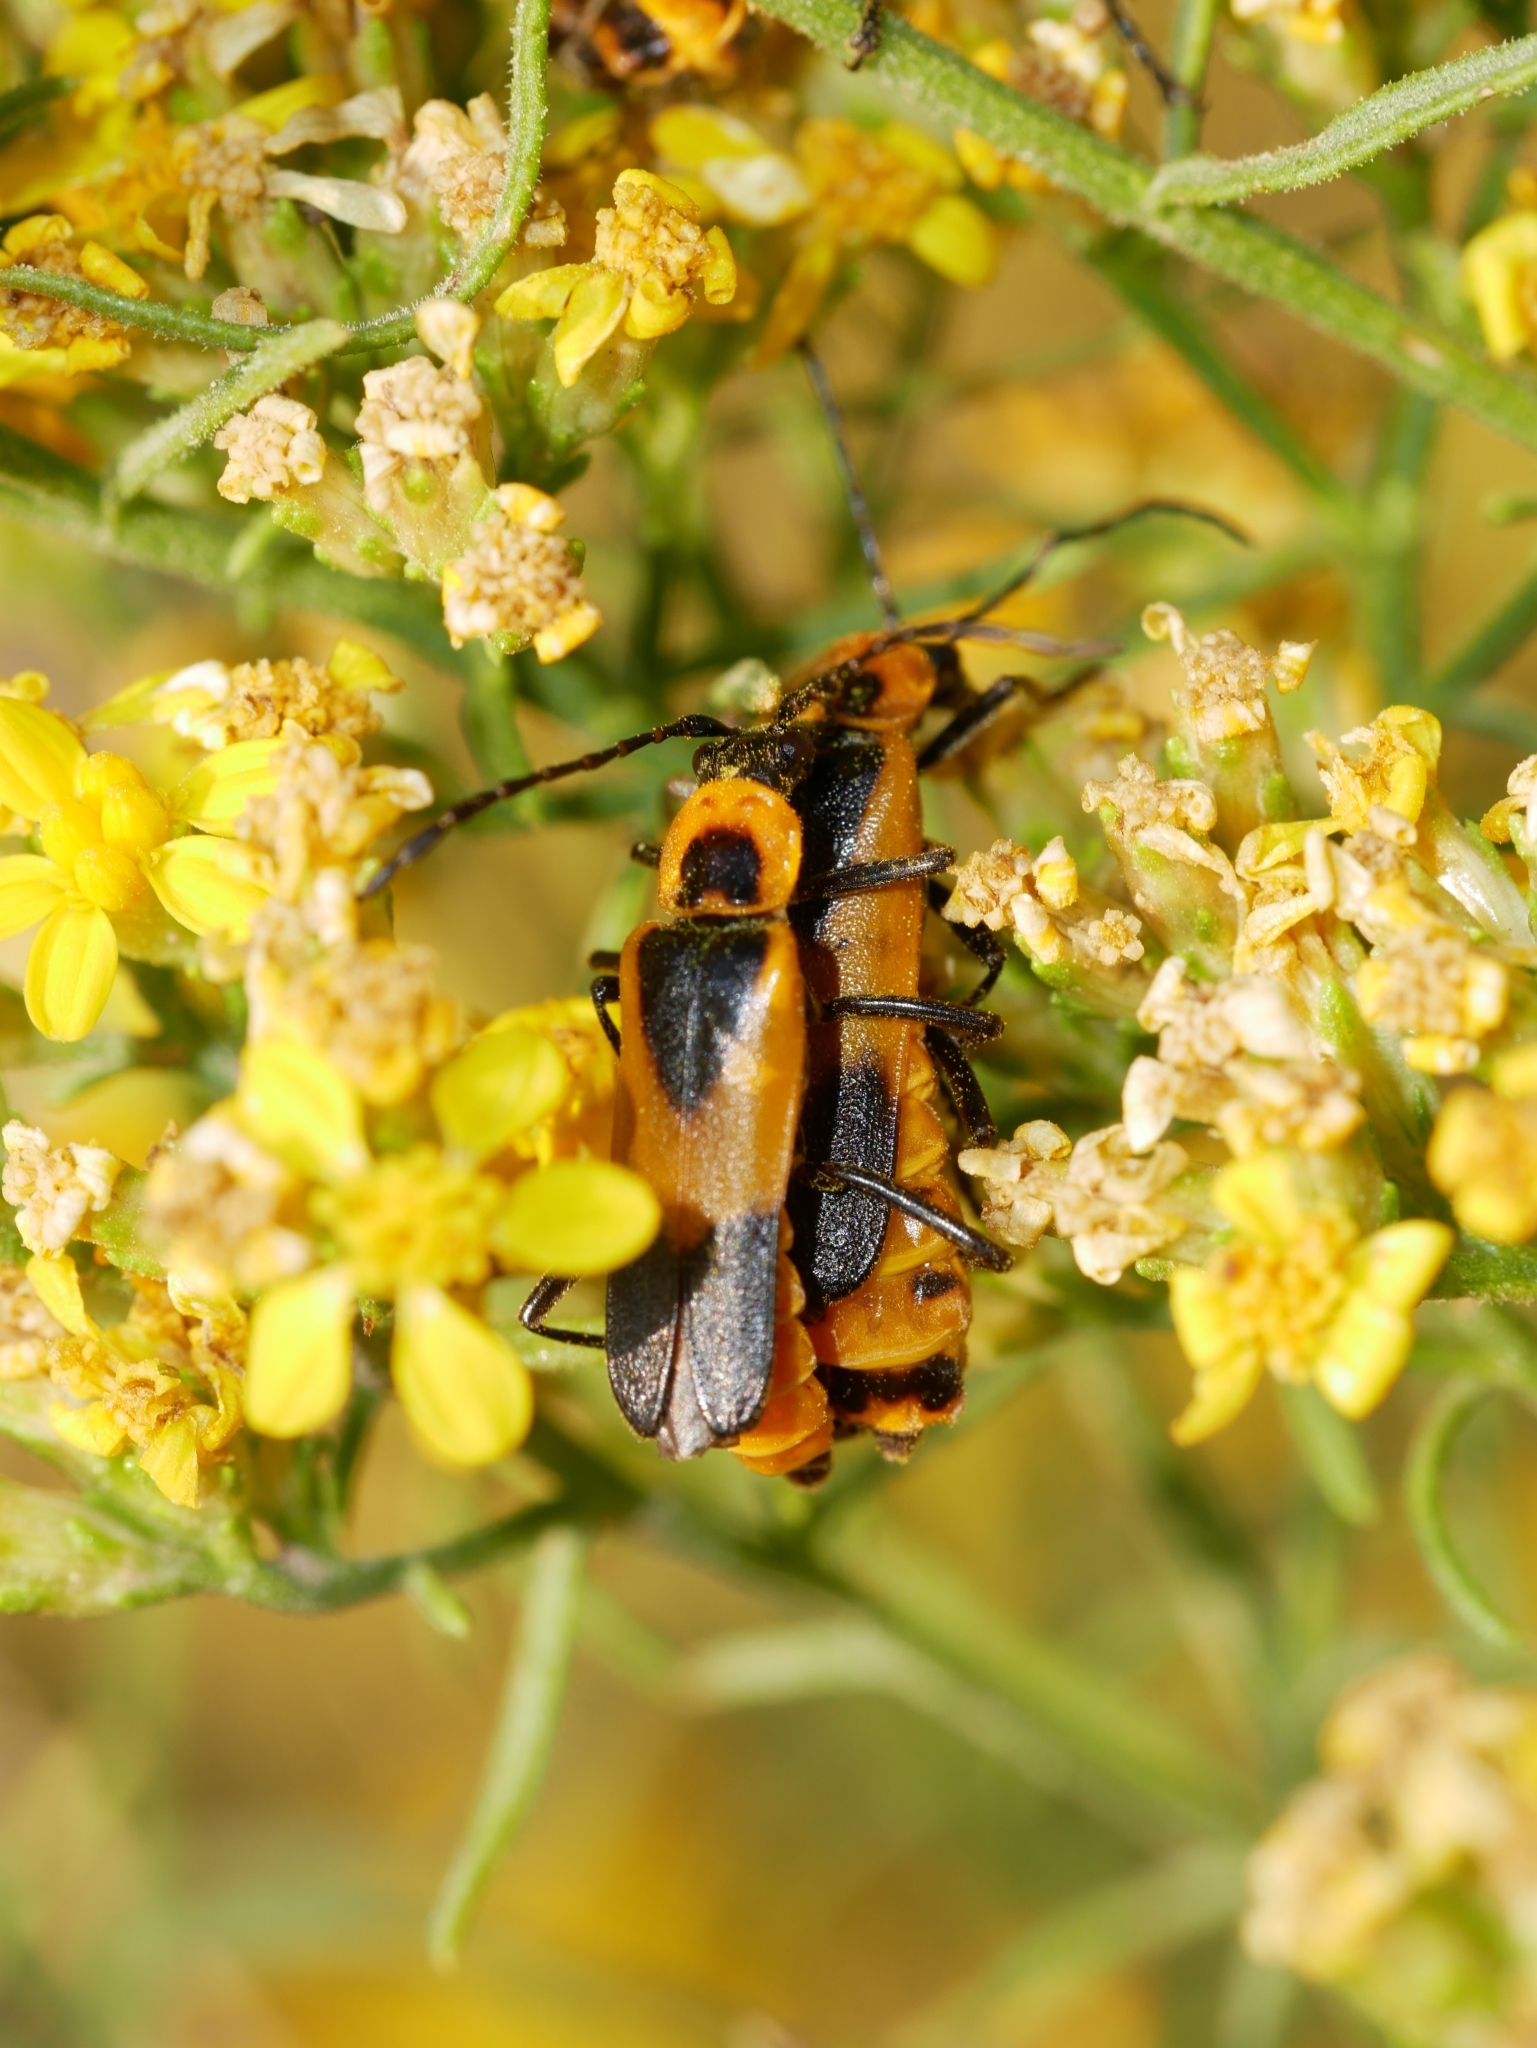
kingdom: Animalia
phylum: Arthropoda
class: Insecta
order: Coleoptera
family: Cantharidae
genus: Chauliognathus
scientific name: Chauliognathus basalis
